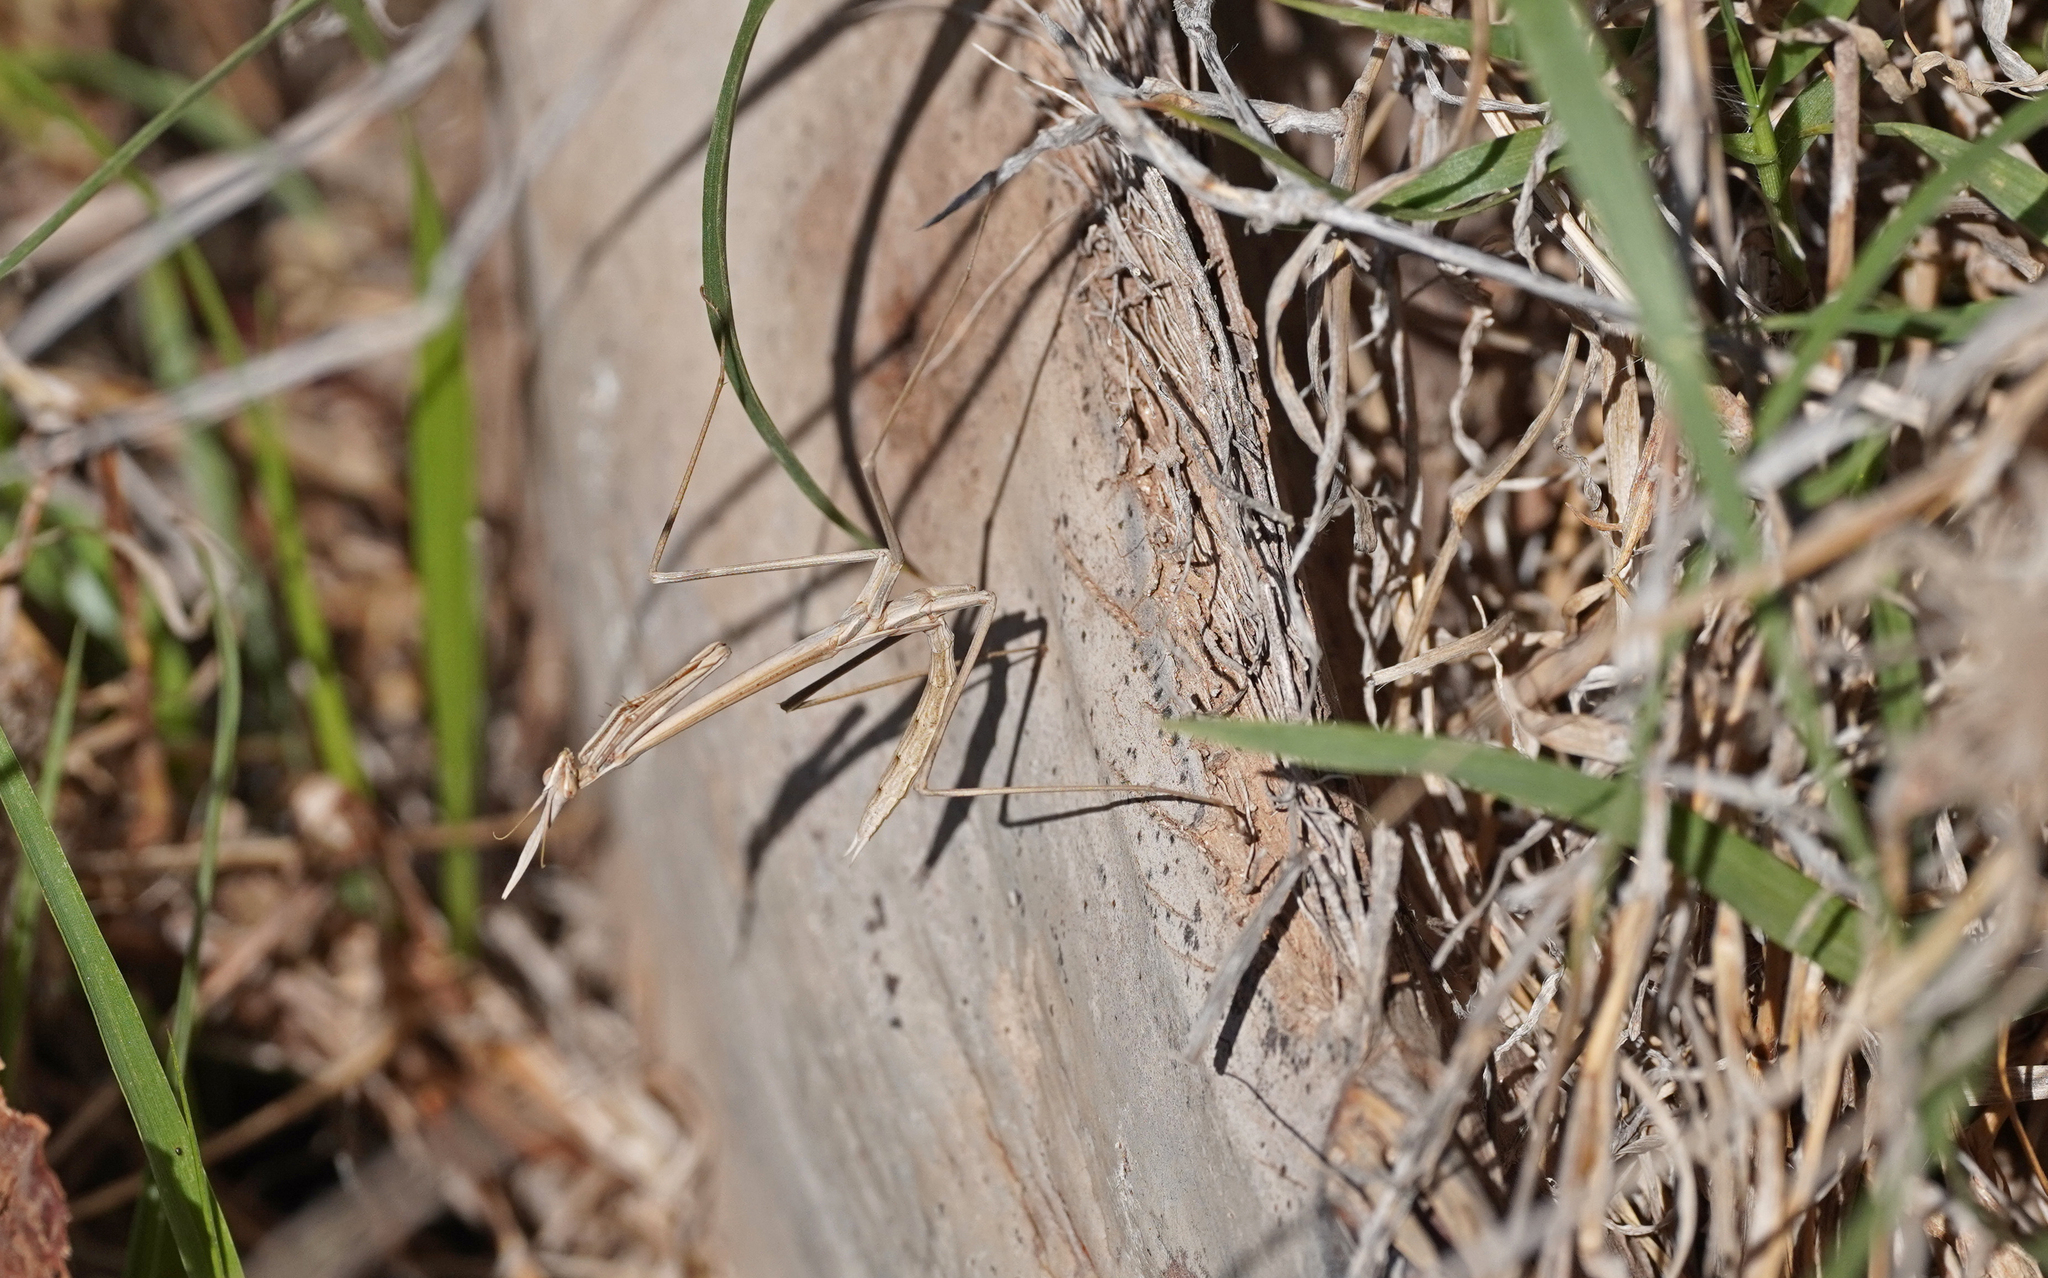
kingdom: Animalia
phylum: Arthropoda
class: Insecta
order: Mantodea
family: Empusidae
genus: Hypsicorypha
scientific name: Hypsicorypha gracilis
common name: Sublime conehead mantis
